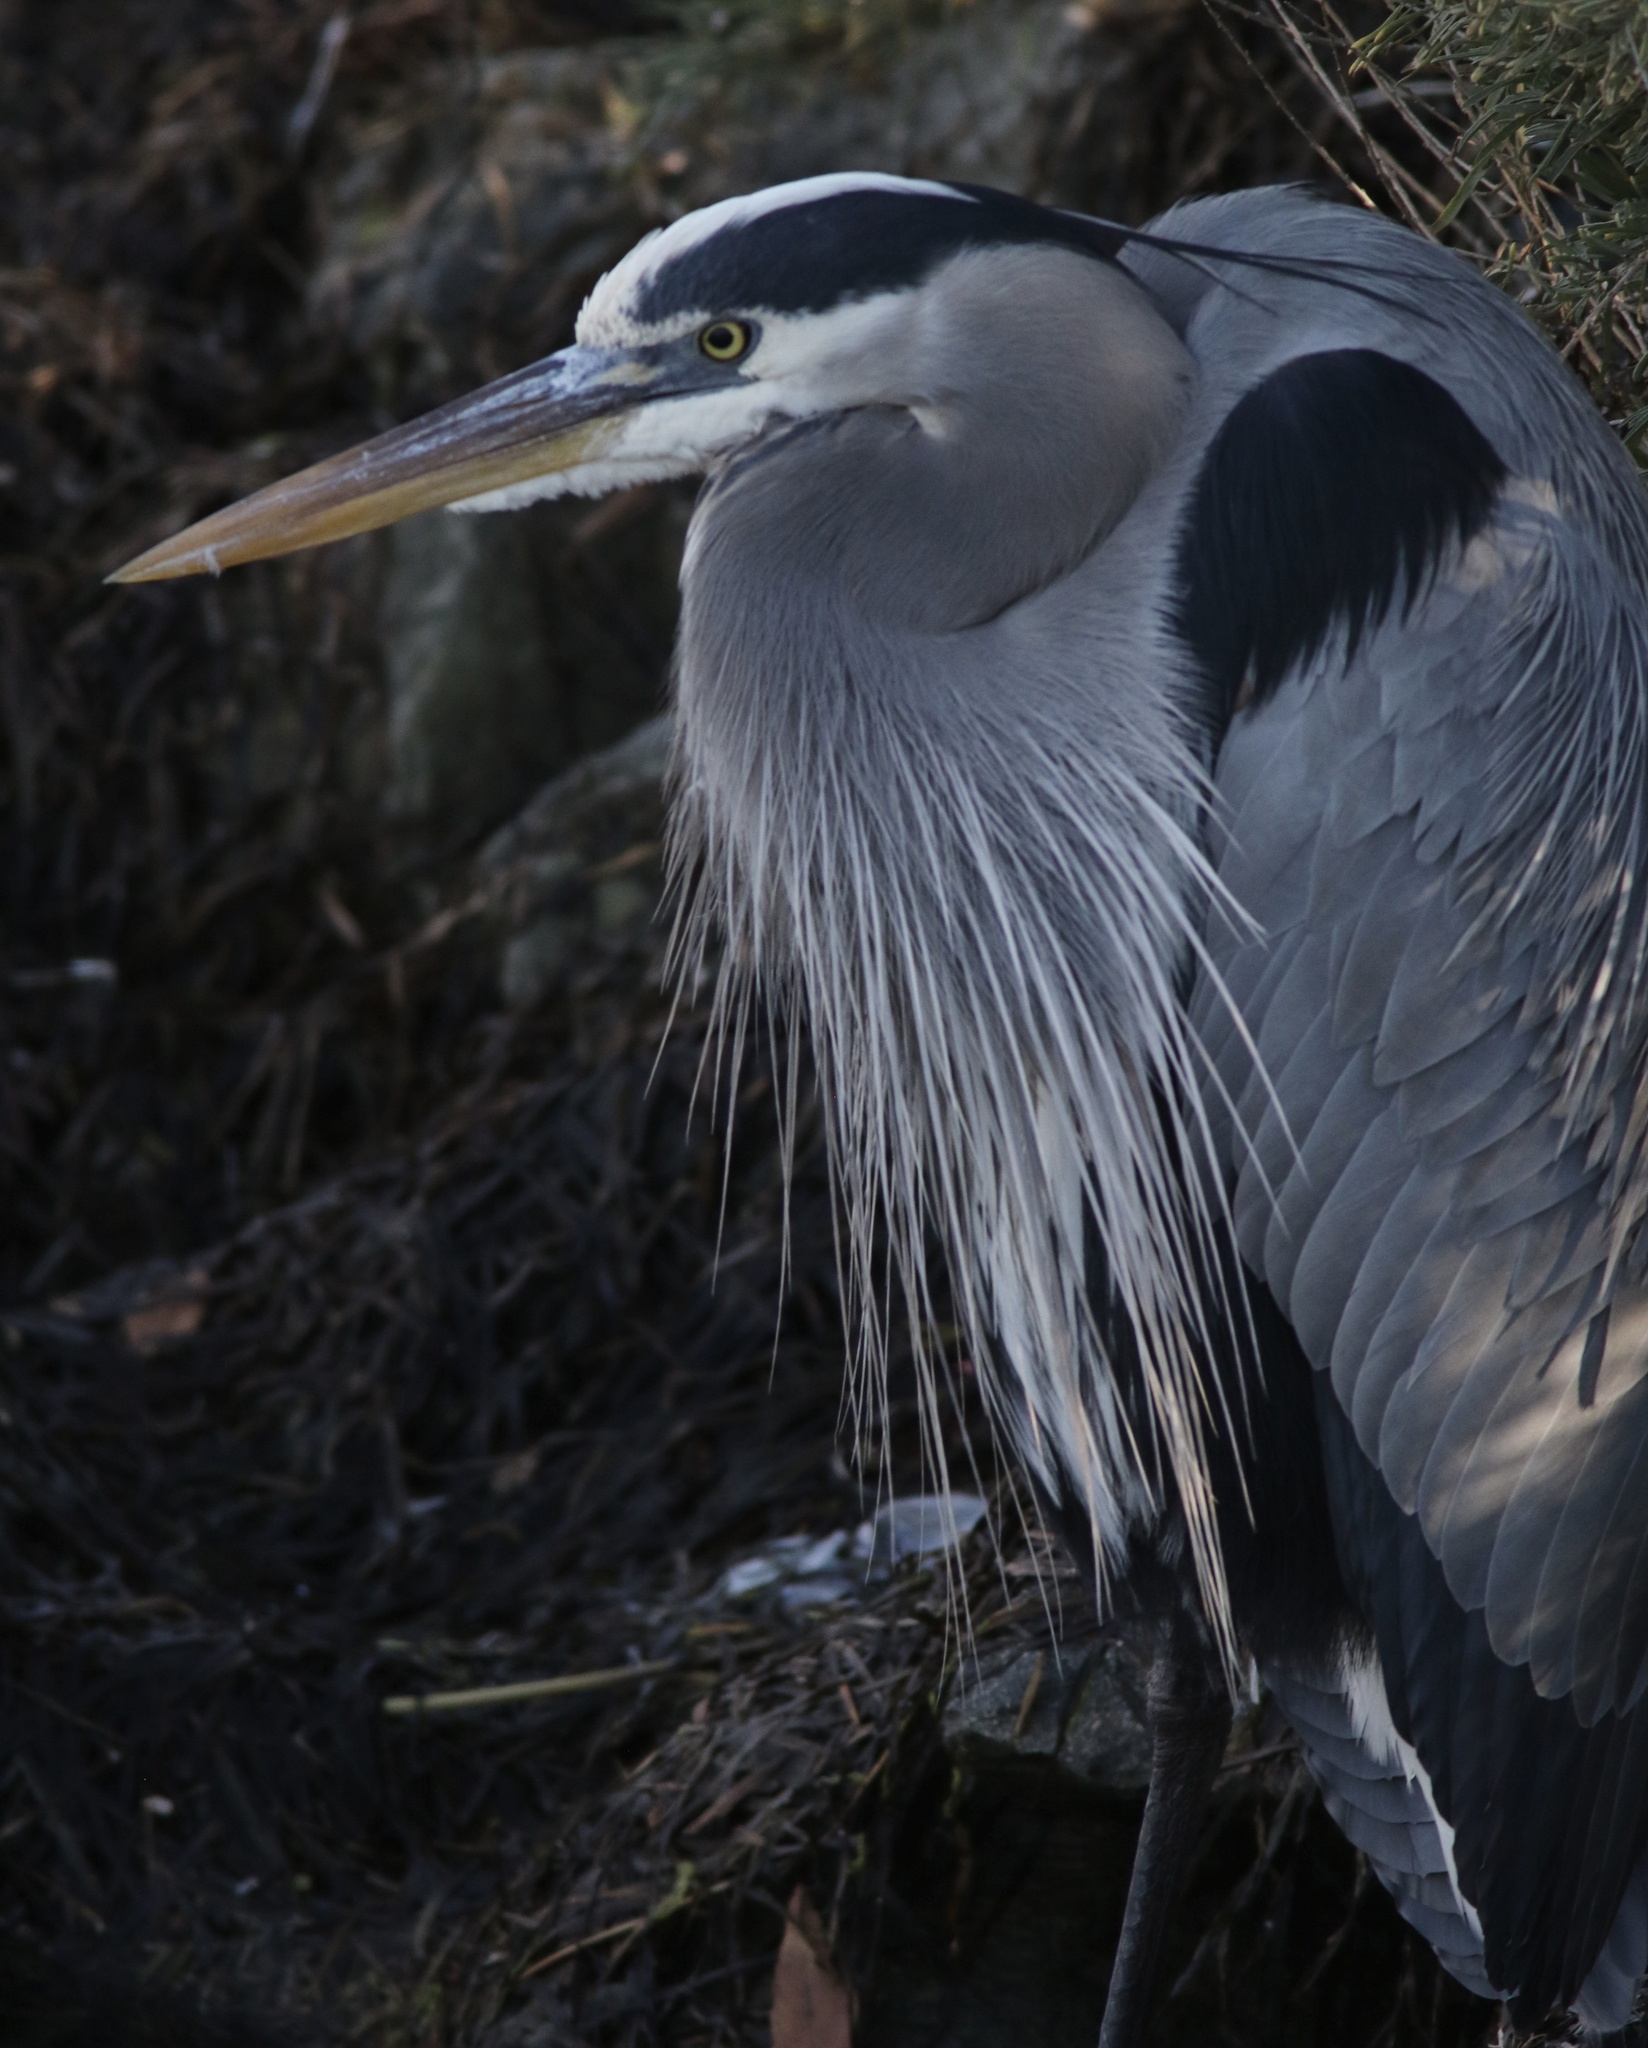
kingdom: Animalia
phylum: Chordata
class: Aves
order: Pelecaniformes
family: Ardeidae
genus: Ardea
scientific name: Ardea herodias
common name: Great blue heron
